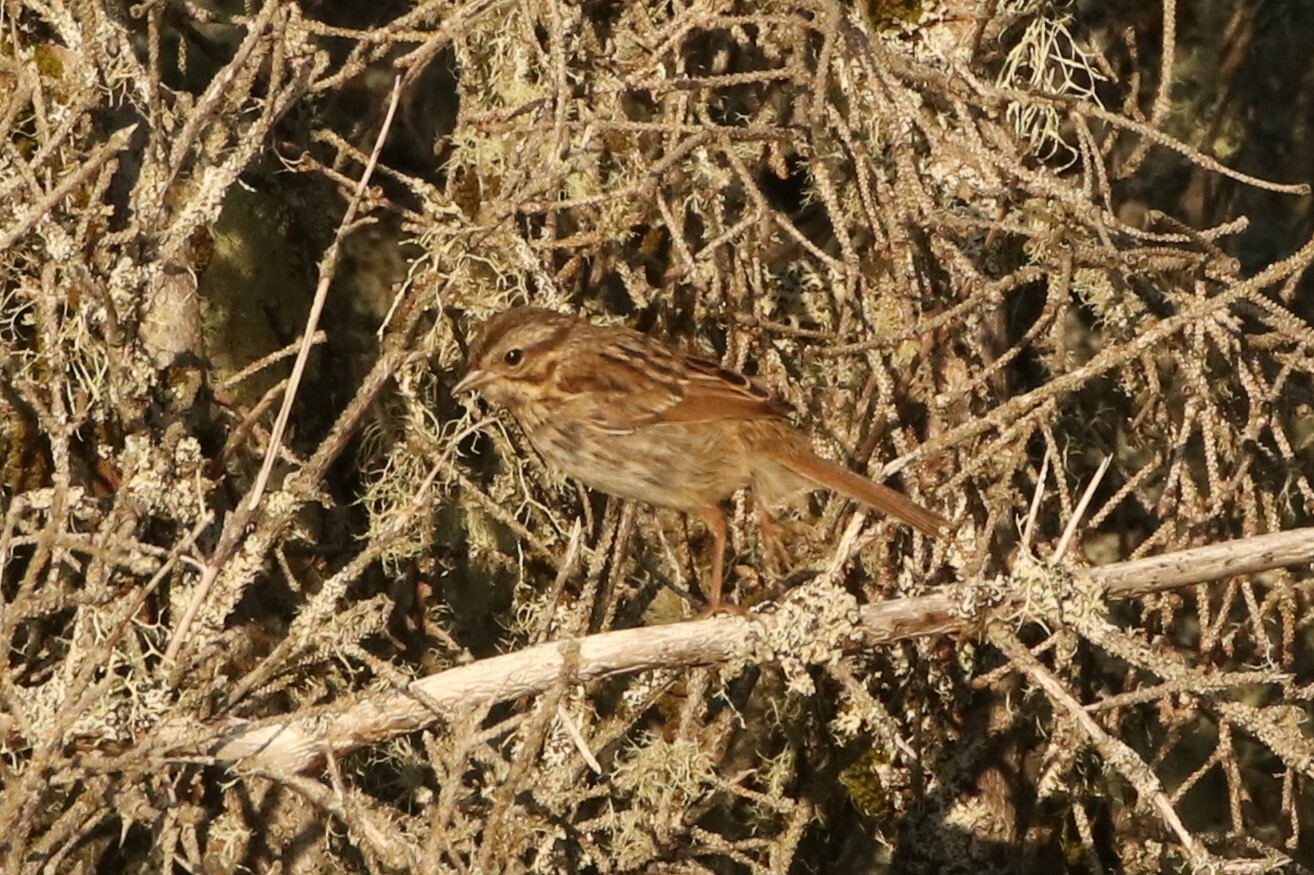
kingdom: Animalia
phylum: Chordata
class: Aves
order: Passeriformes
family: Passerellidae
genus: Melospiza
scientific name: Melospiza melodia
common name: Song sparrow
